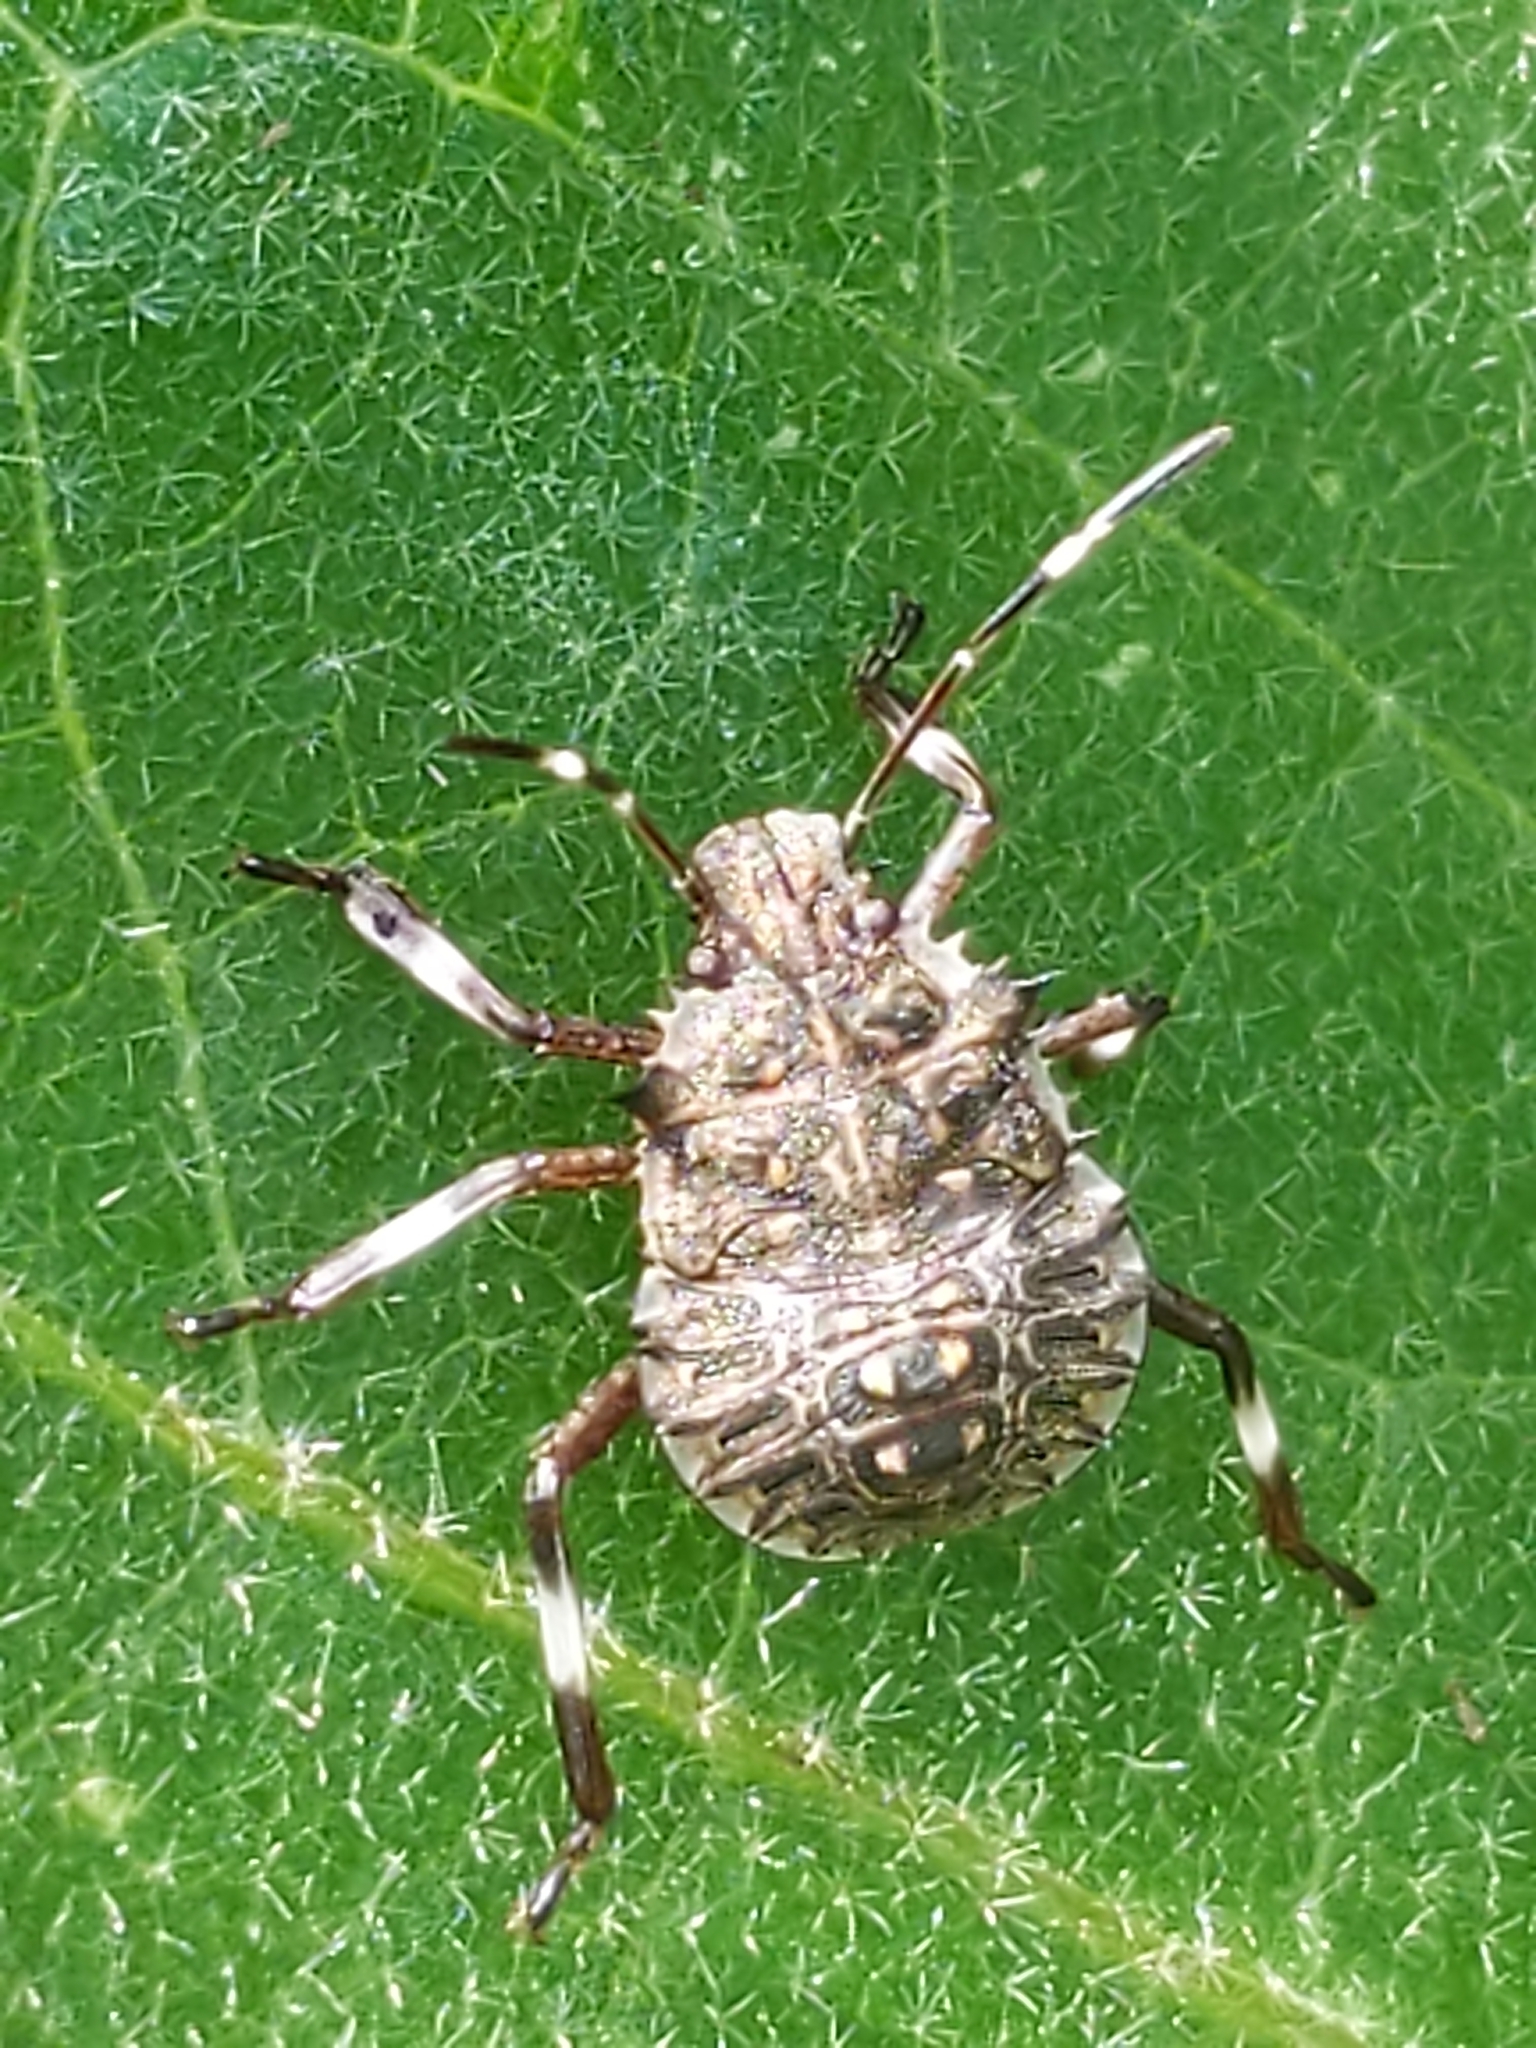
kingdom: Animalia
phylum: Arthropoda
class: Insecta
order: Hemiptera
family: Pentatomidae
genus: Halyomorpha
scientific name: Halyomorpha halys
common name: Brown marmorated stink bug
